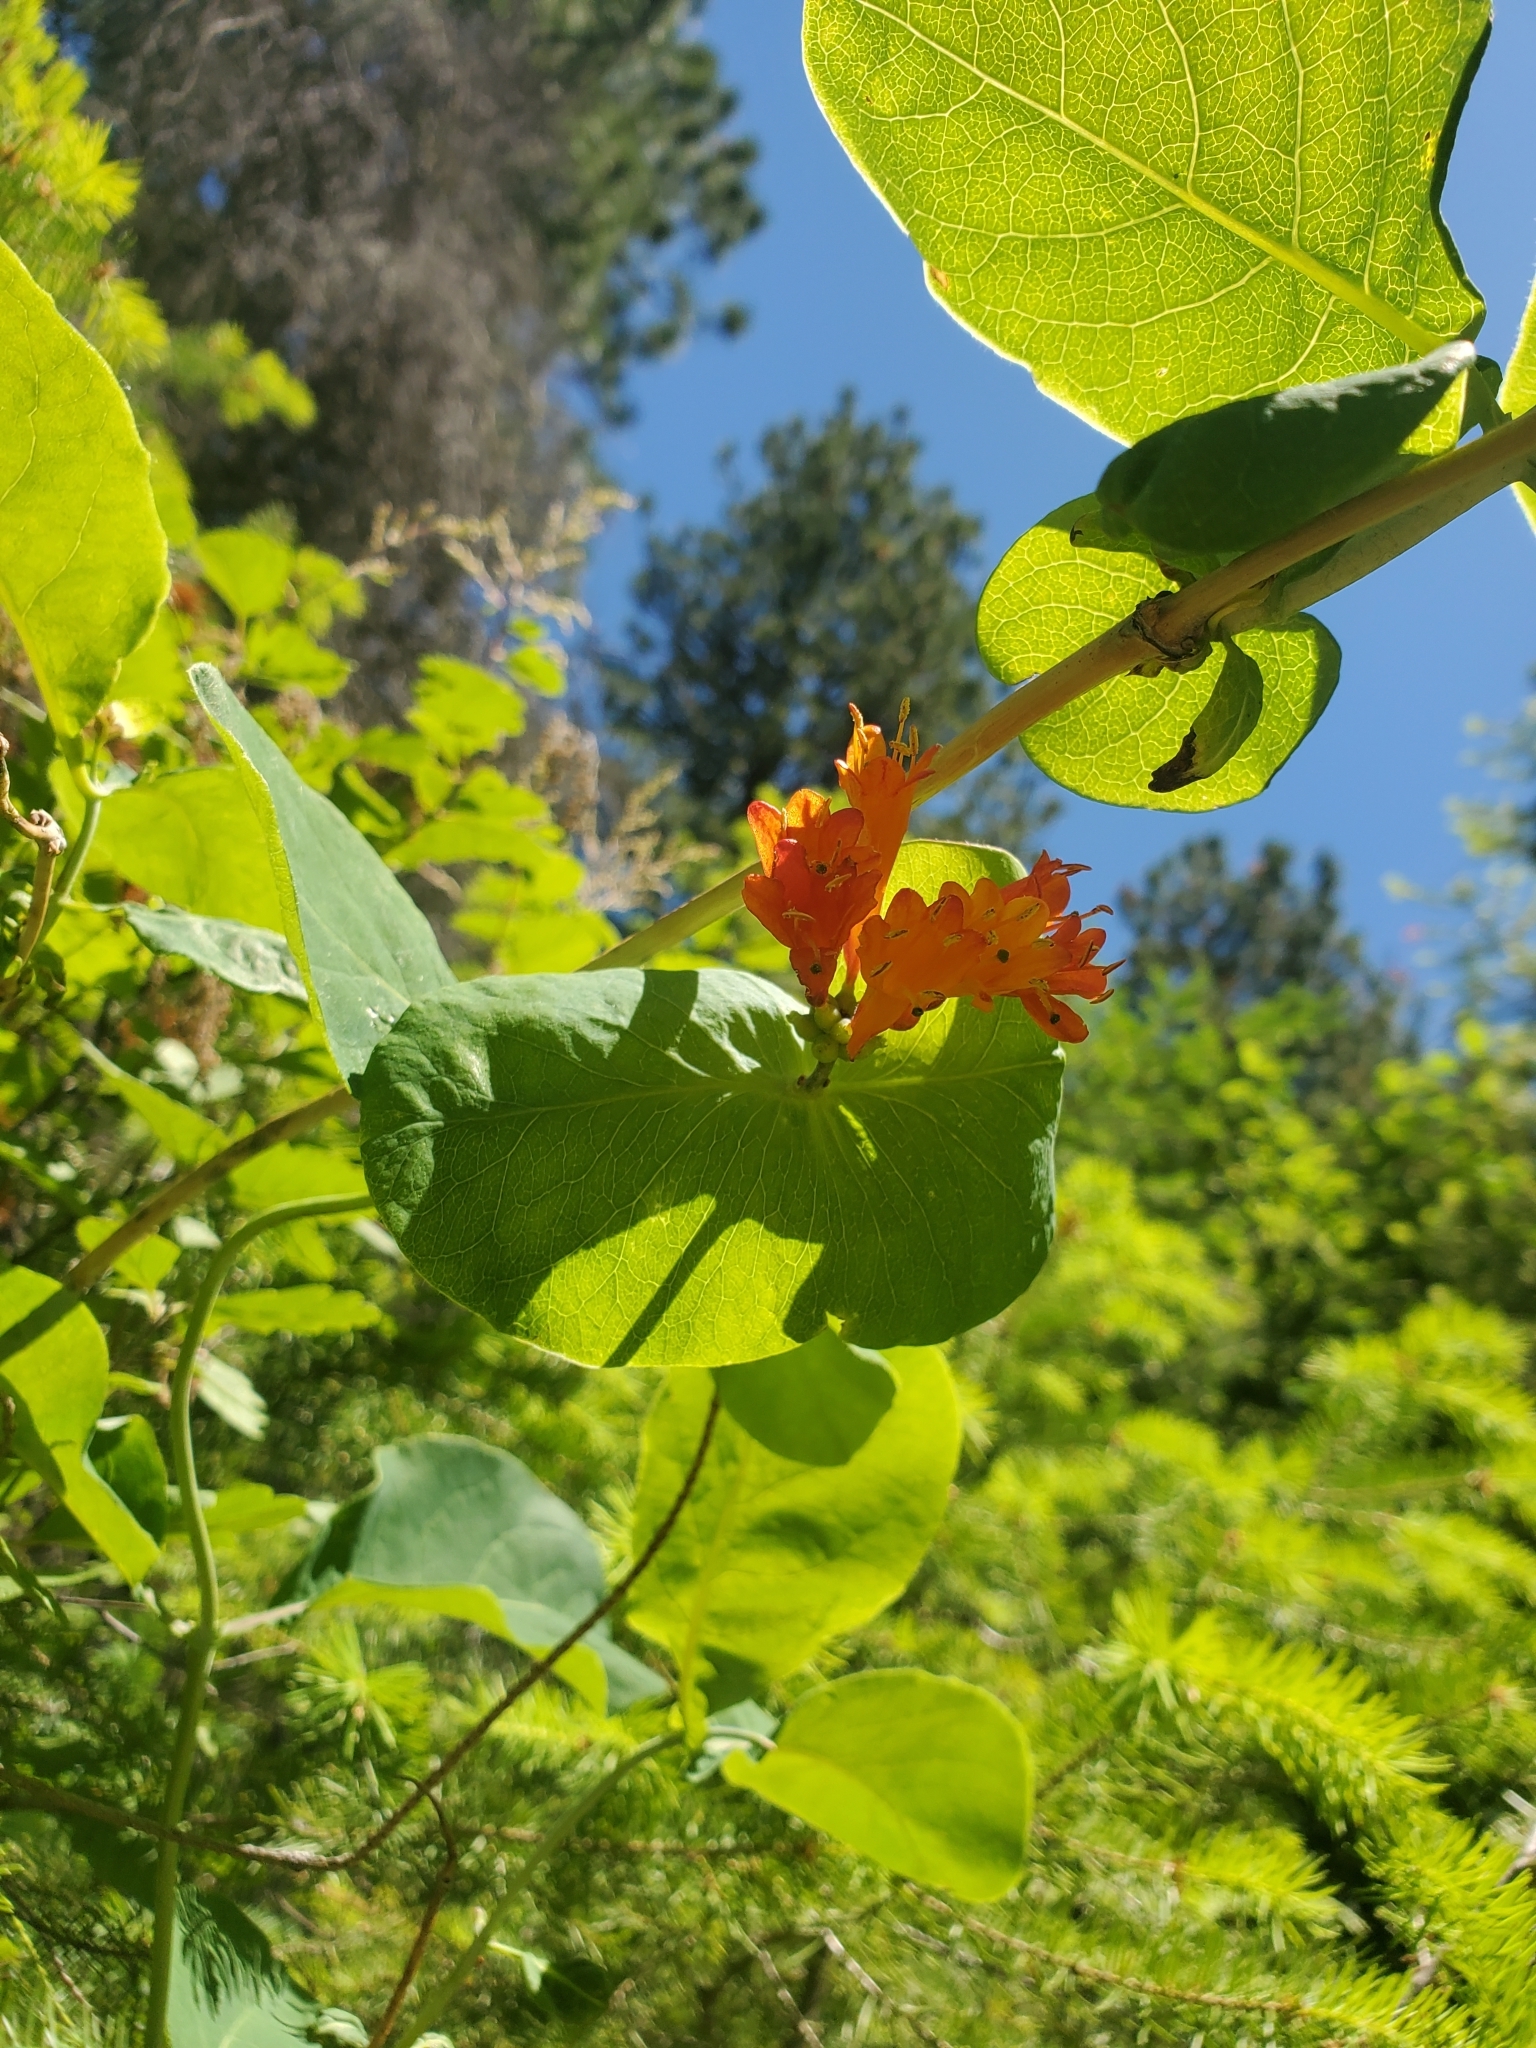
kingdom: Plantae
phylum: Tracheophyta
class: Magnoliopsida
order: Dipsacales
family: Caprifoliaceae
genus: Lonicera
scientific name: Lonicera ciliosa
